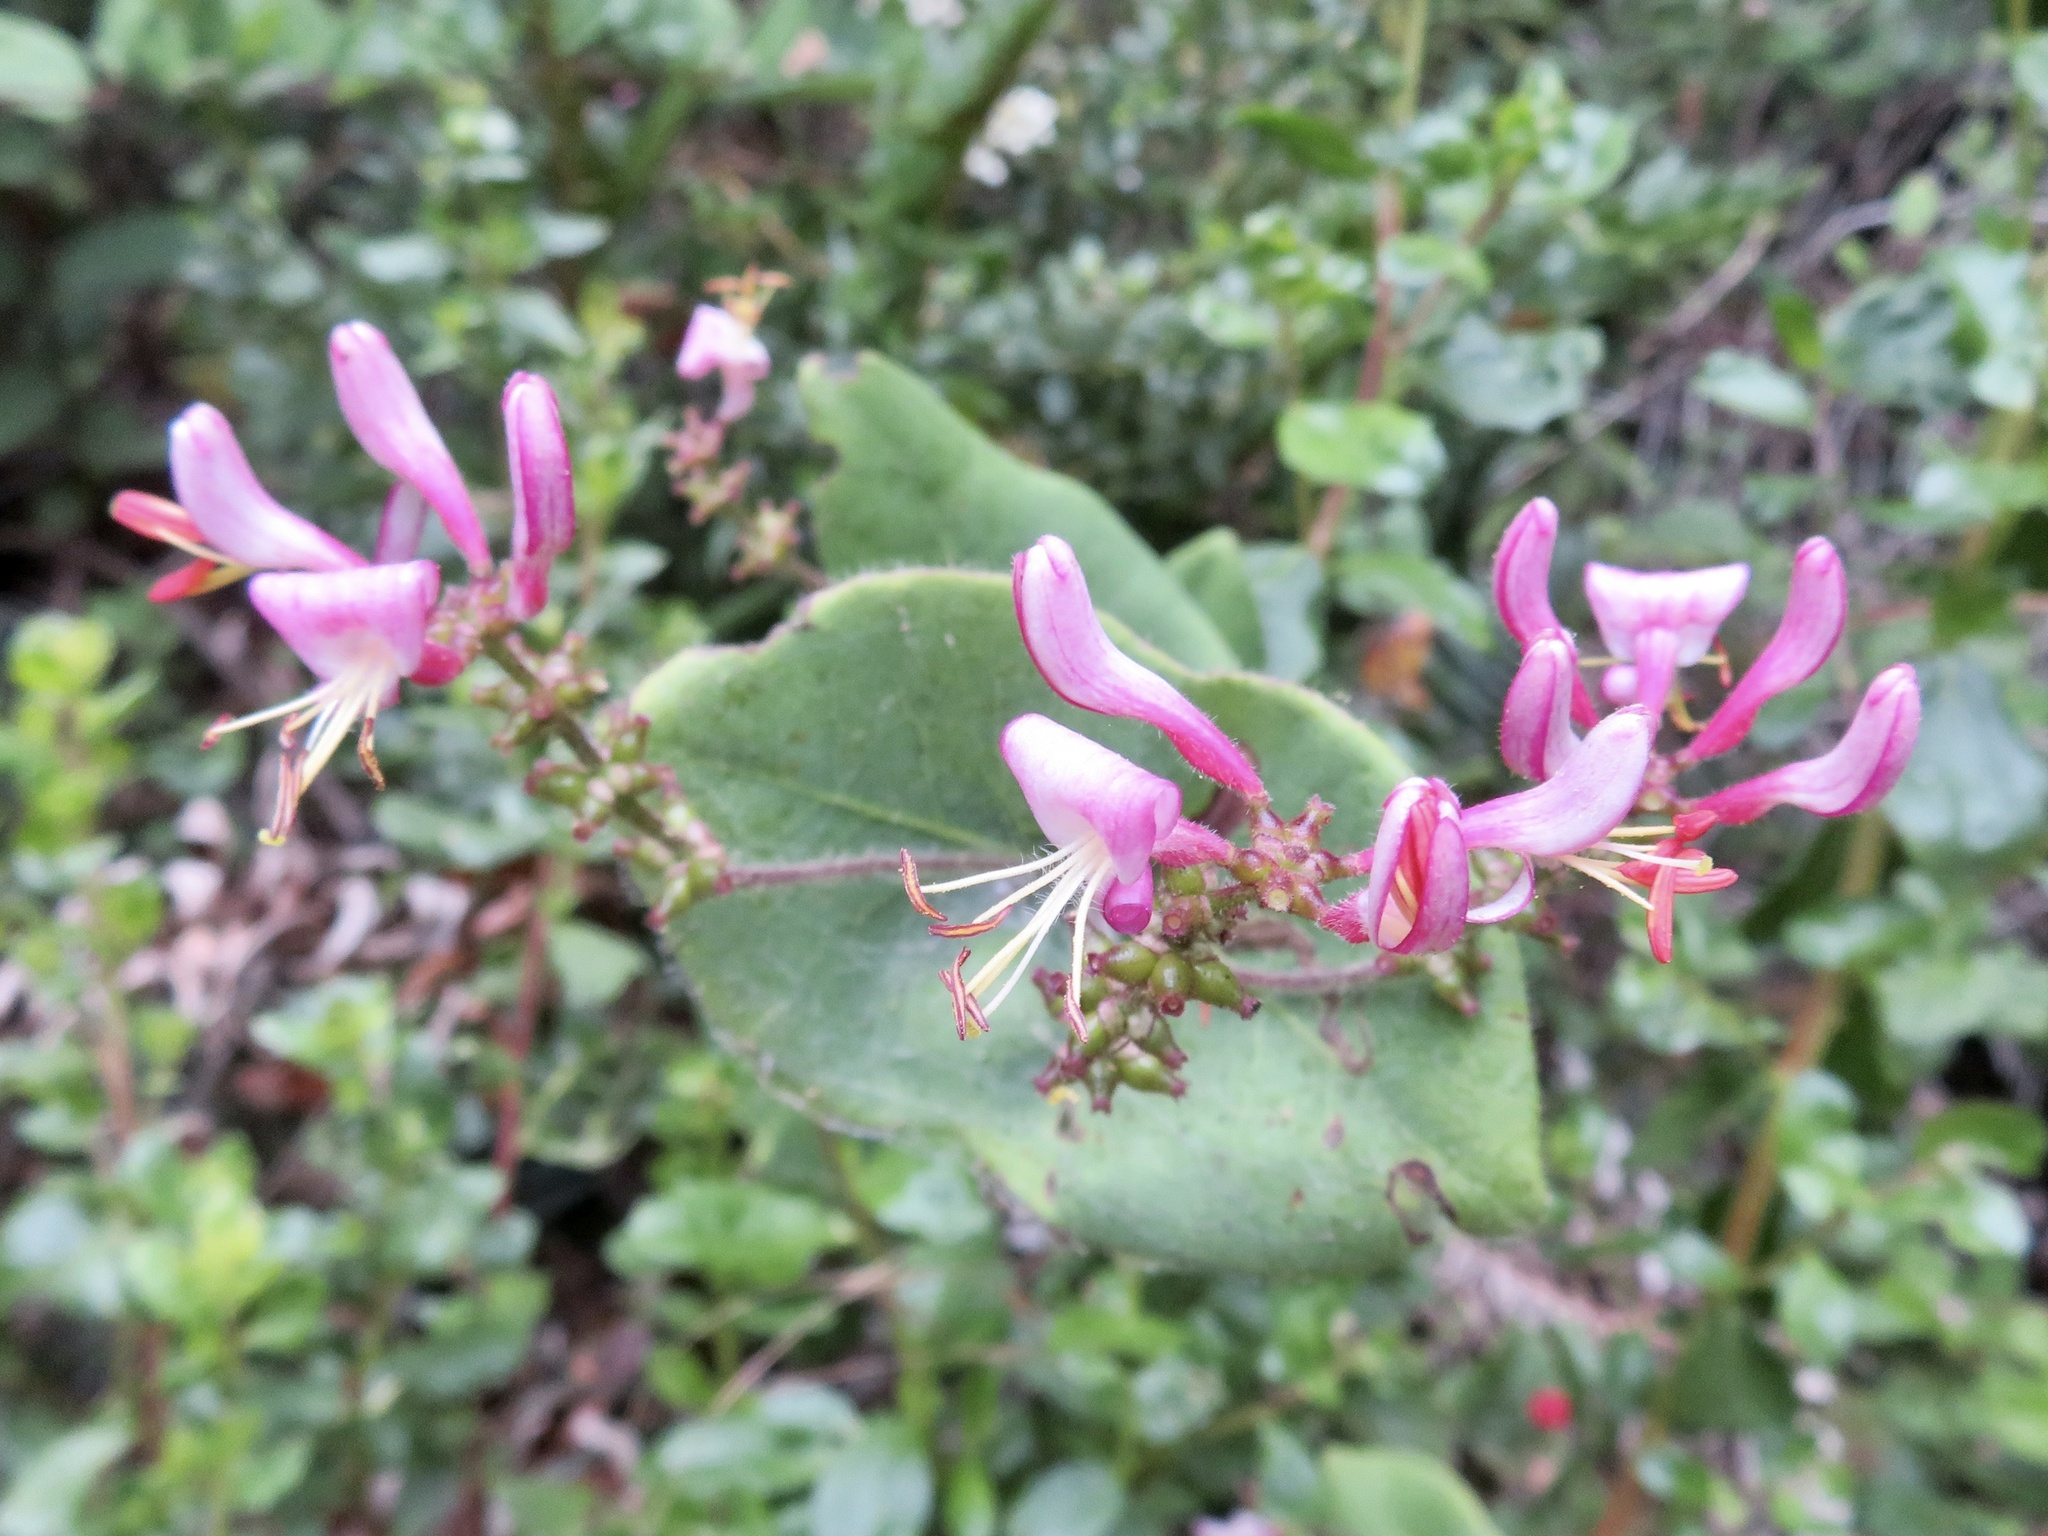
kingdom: Plantae
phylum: Tracheophyta
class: Magnoliopsida
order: Dipsacales
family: Caprifoliaceae
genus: Lonicera
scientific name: Lonicera hispidula
